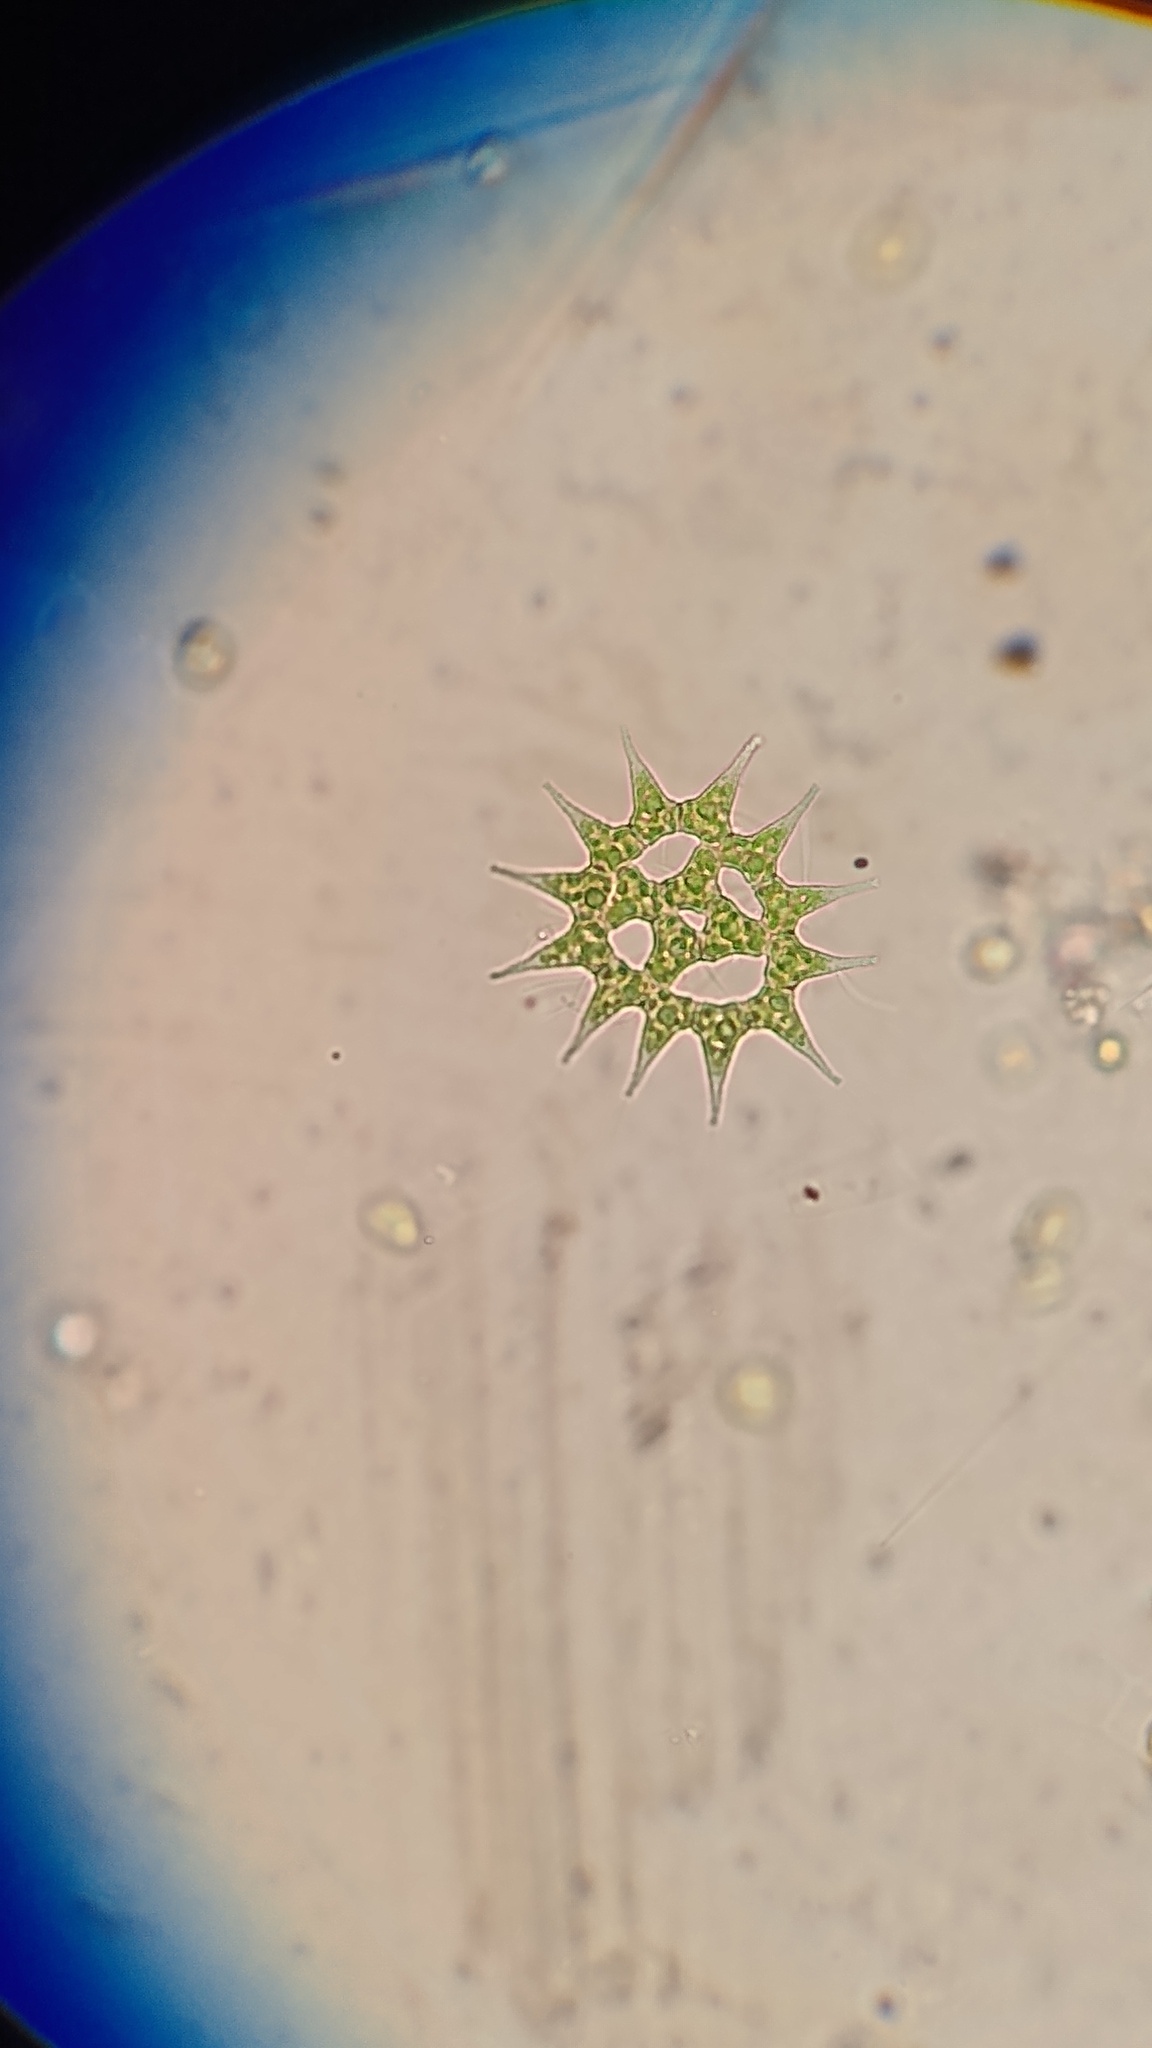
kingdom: Plantae
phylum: Chlorophyta
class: Chlorophyceae
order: Sphaeropleales
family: Hydrodictyaceae
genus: Monactinus
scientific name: Monactinus simplex
